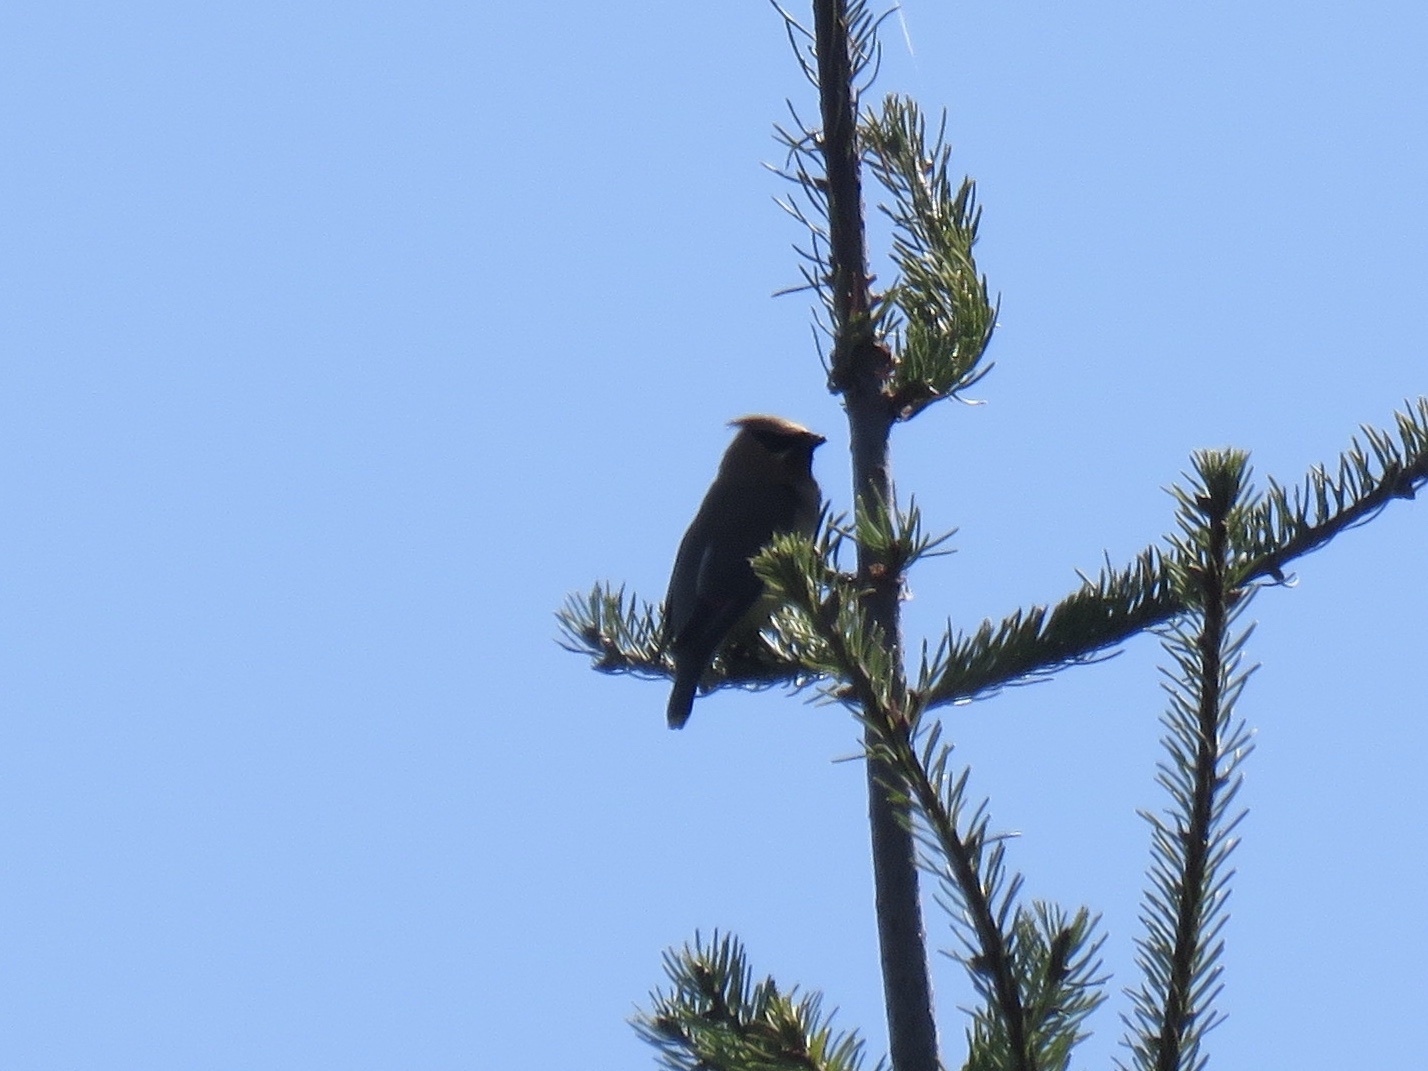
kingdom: Animalia
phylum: Chordata
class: Aves
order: Passeriformes
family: Bombycillidae
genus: Bombycilla
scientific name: Bombycilla cedrorum
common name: Cedar waxwing
